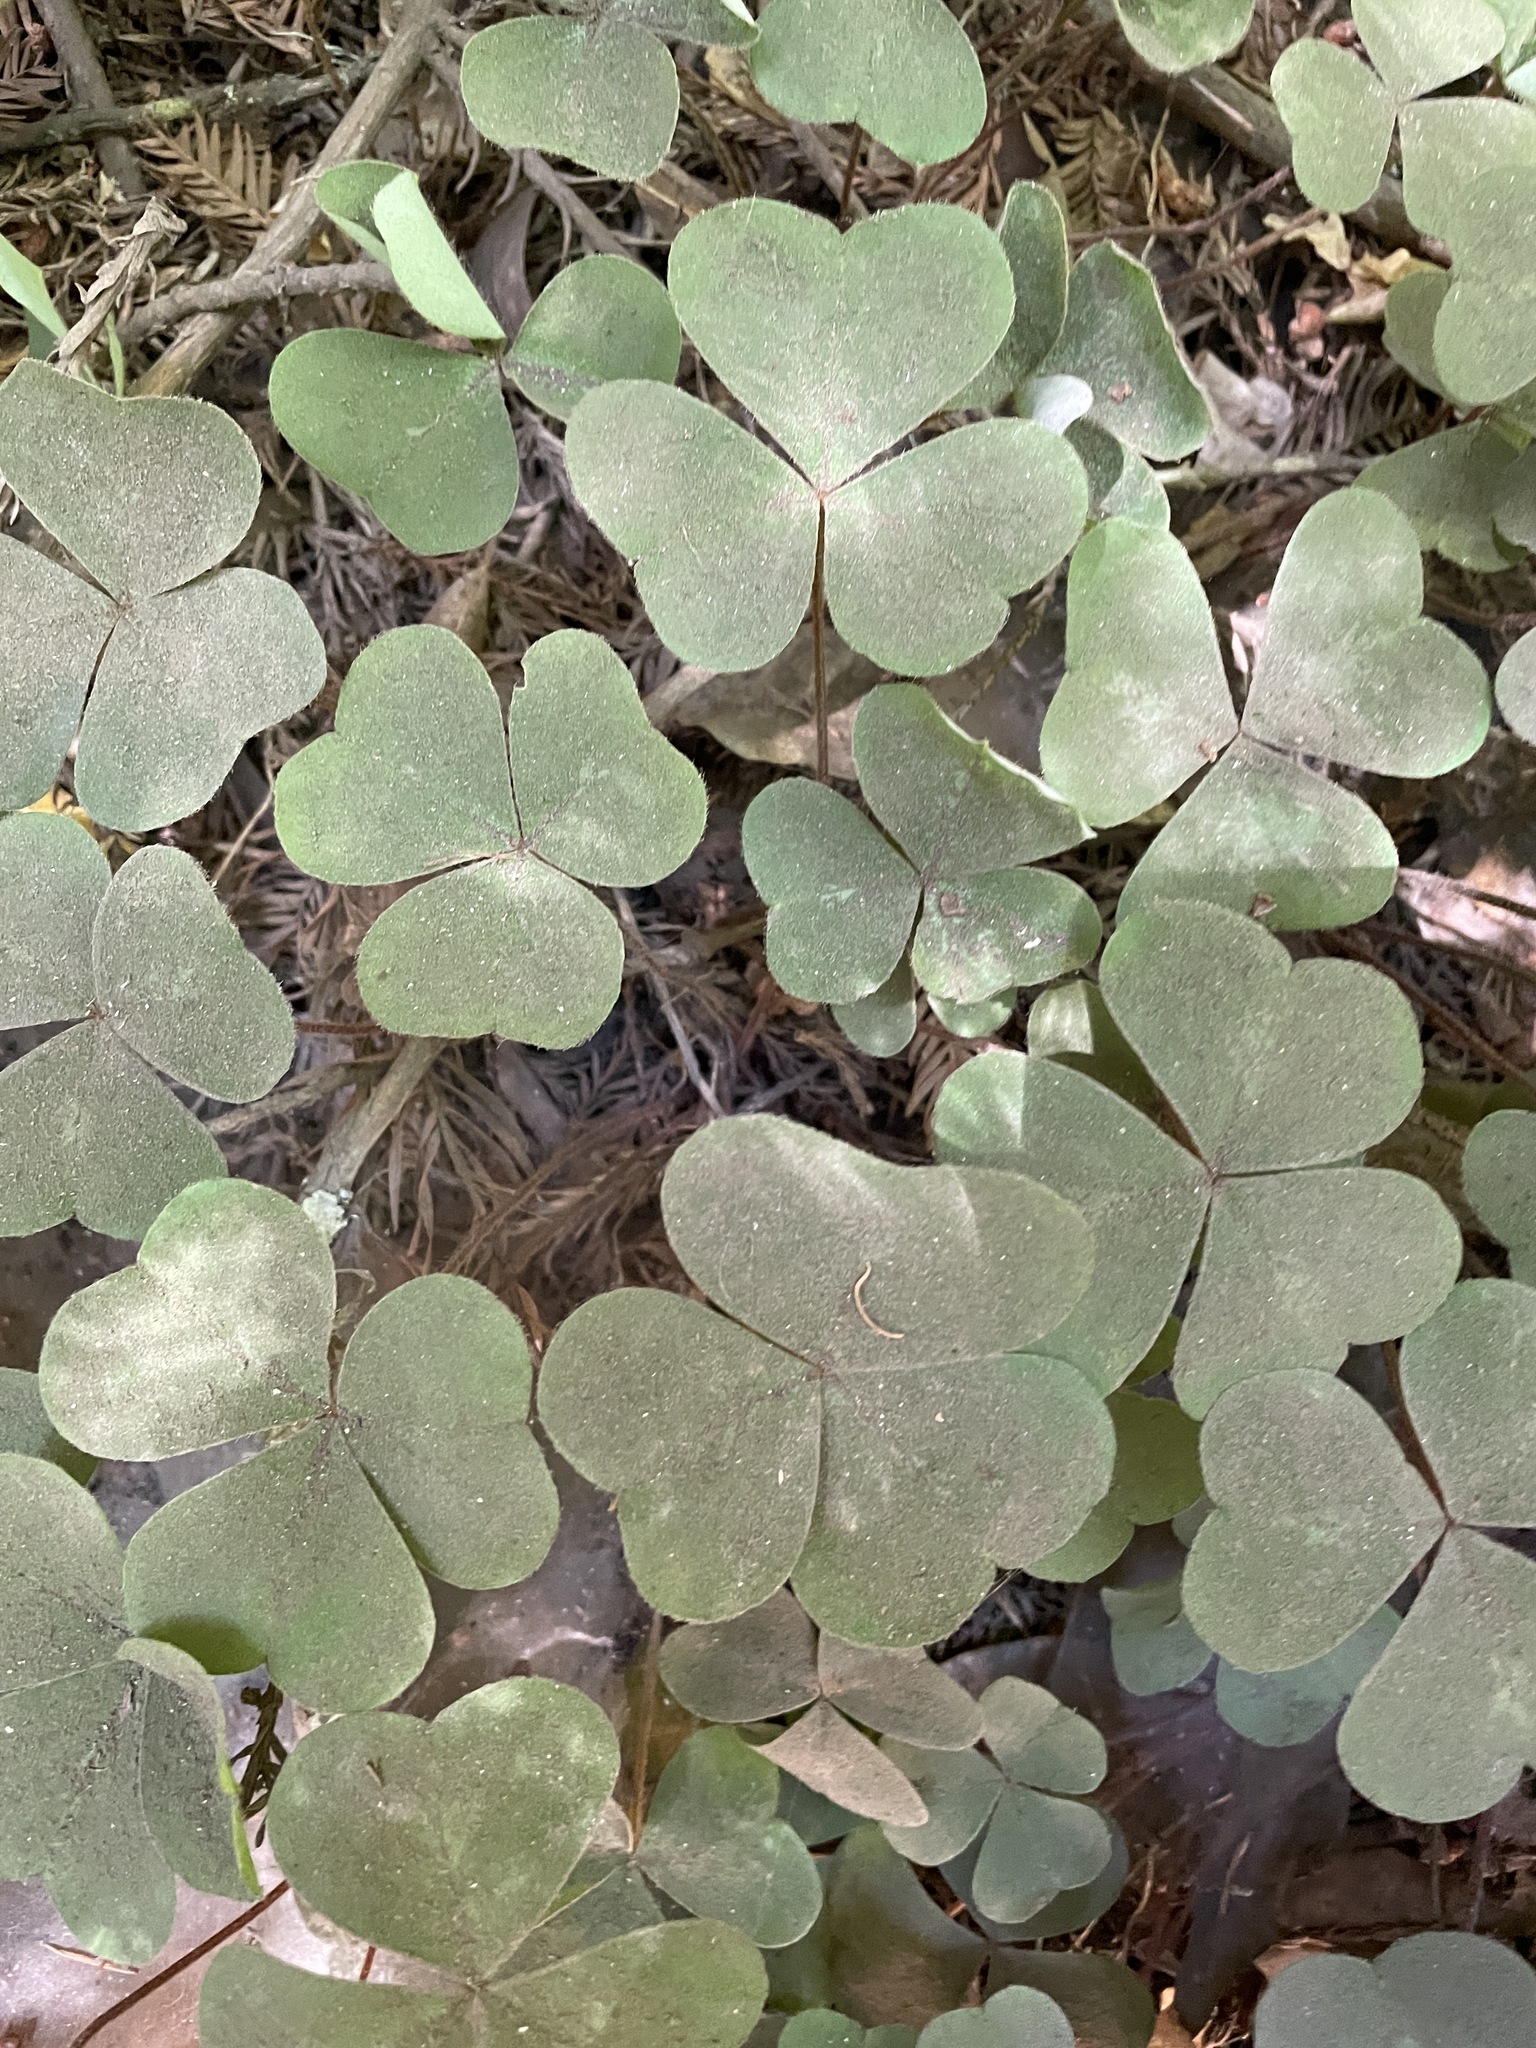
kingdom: Plantae
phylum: Tracheophyta
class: Magnoliopsida
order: Oxalidales
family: Oxalidaceae
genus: Oxalis
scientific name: Oxalis oregana
